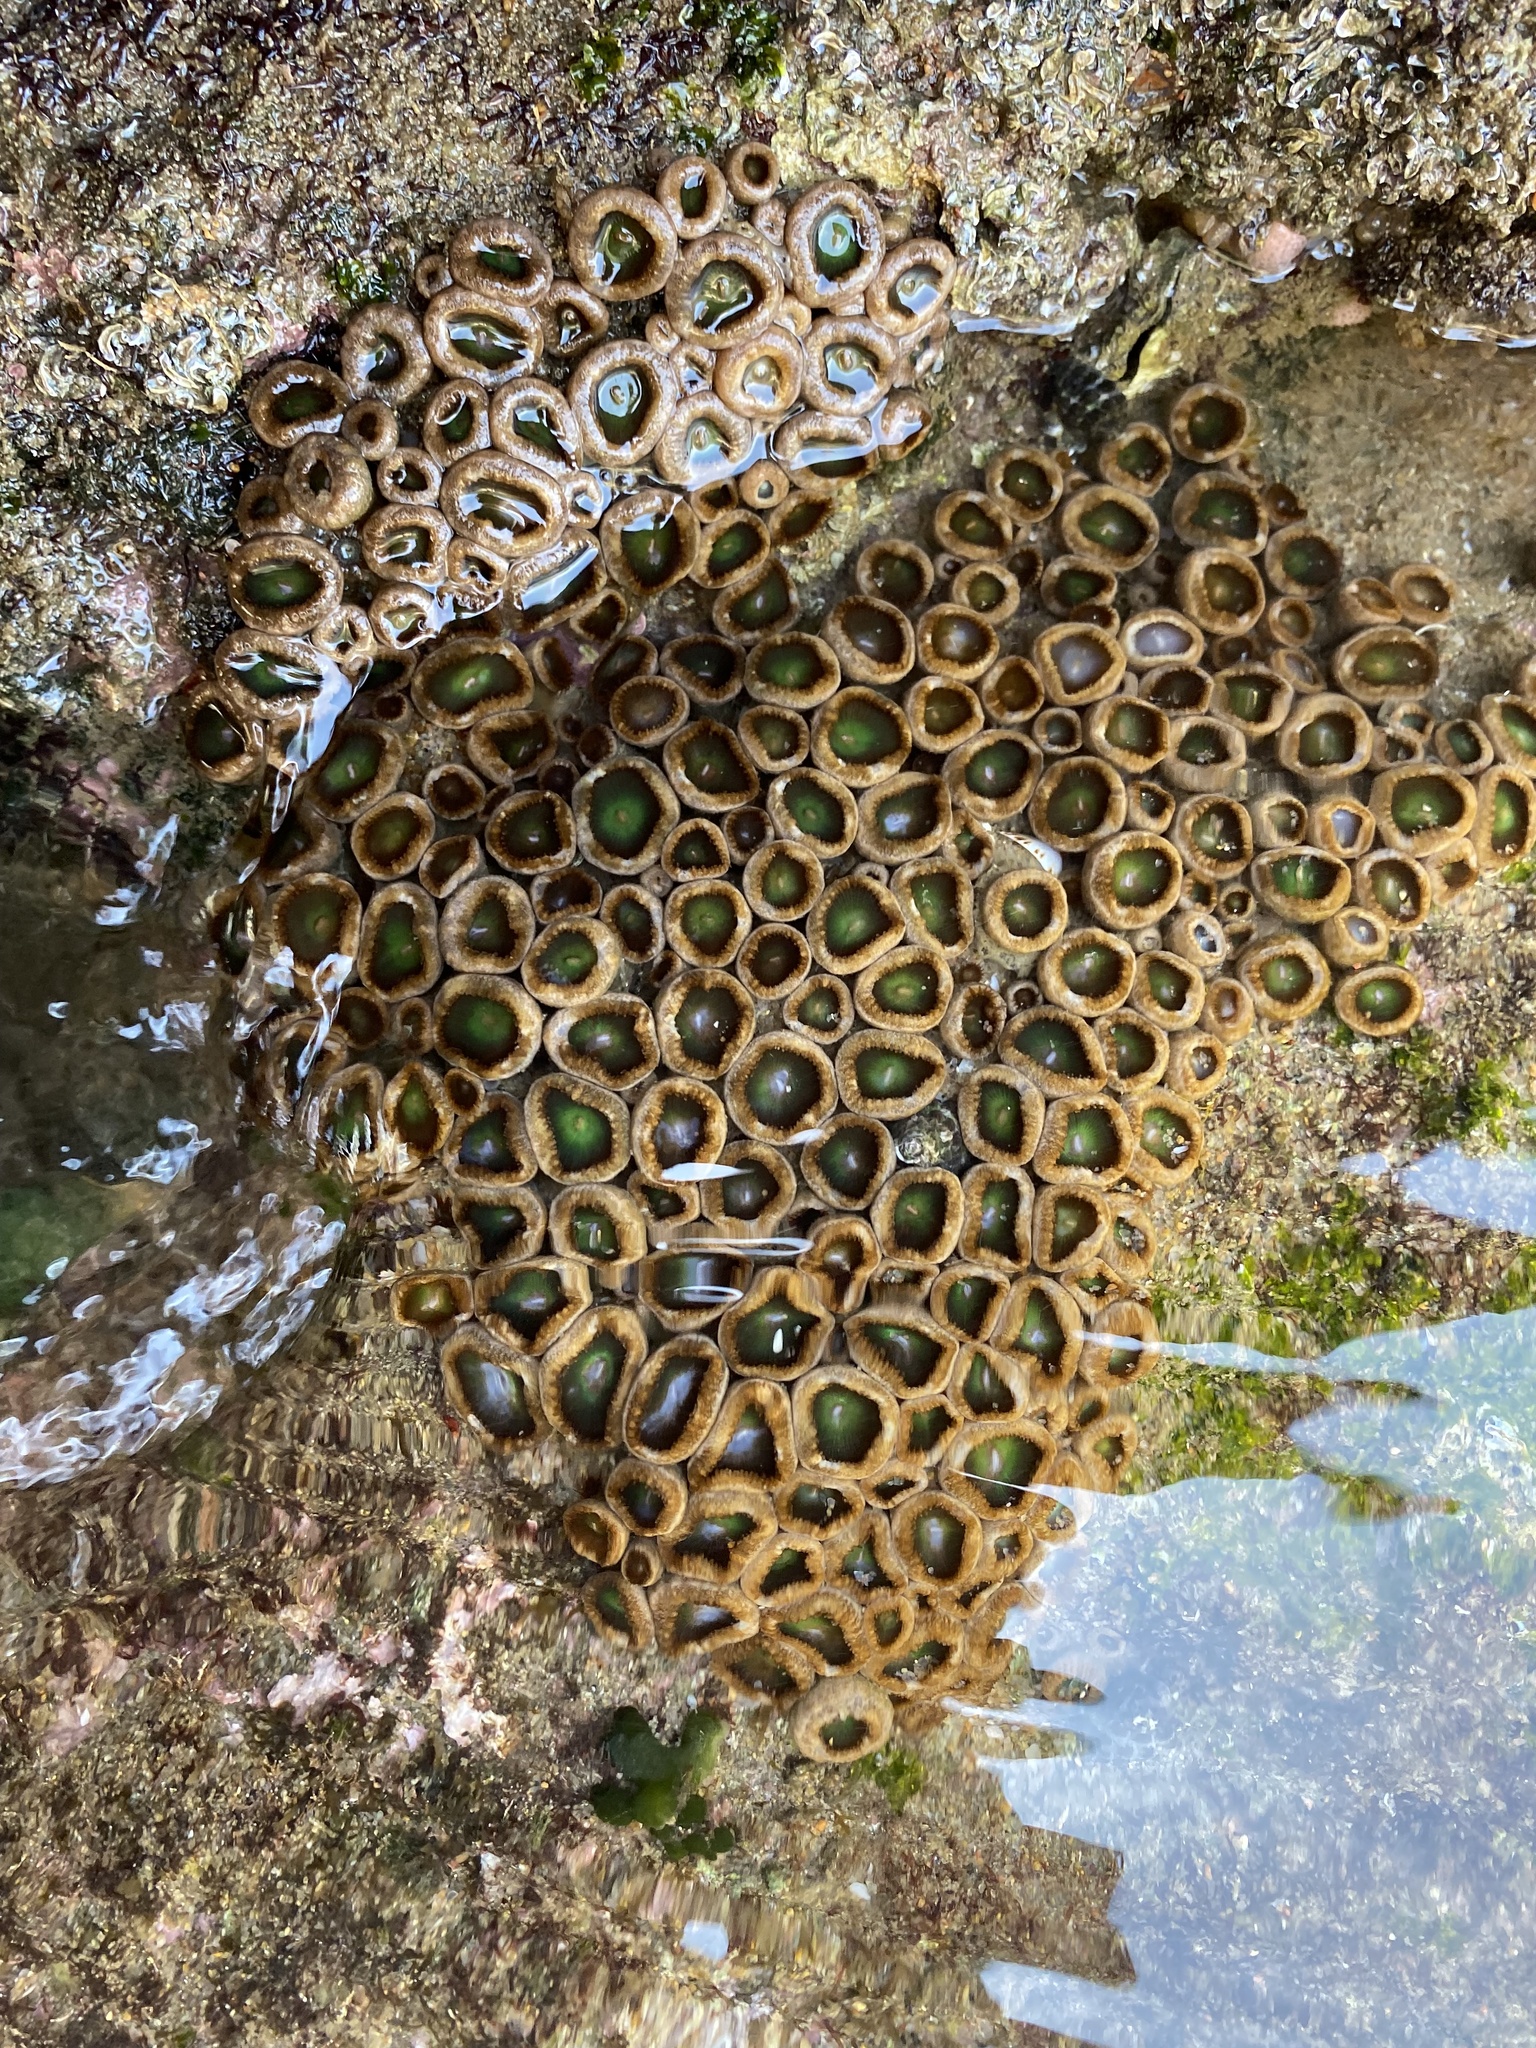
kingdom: Animalia
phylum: Cnidaria
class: Anthozoa
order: Zoantharia
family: Sphenopidae
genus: Palythoa
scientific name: Palythoa mutuki
